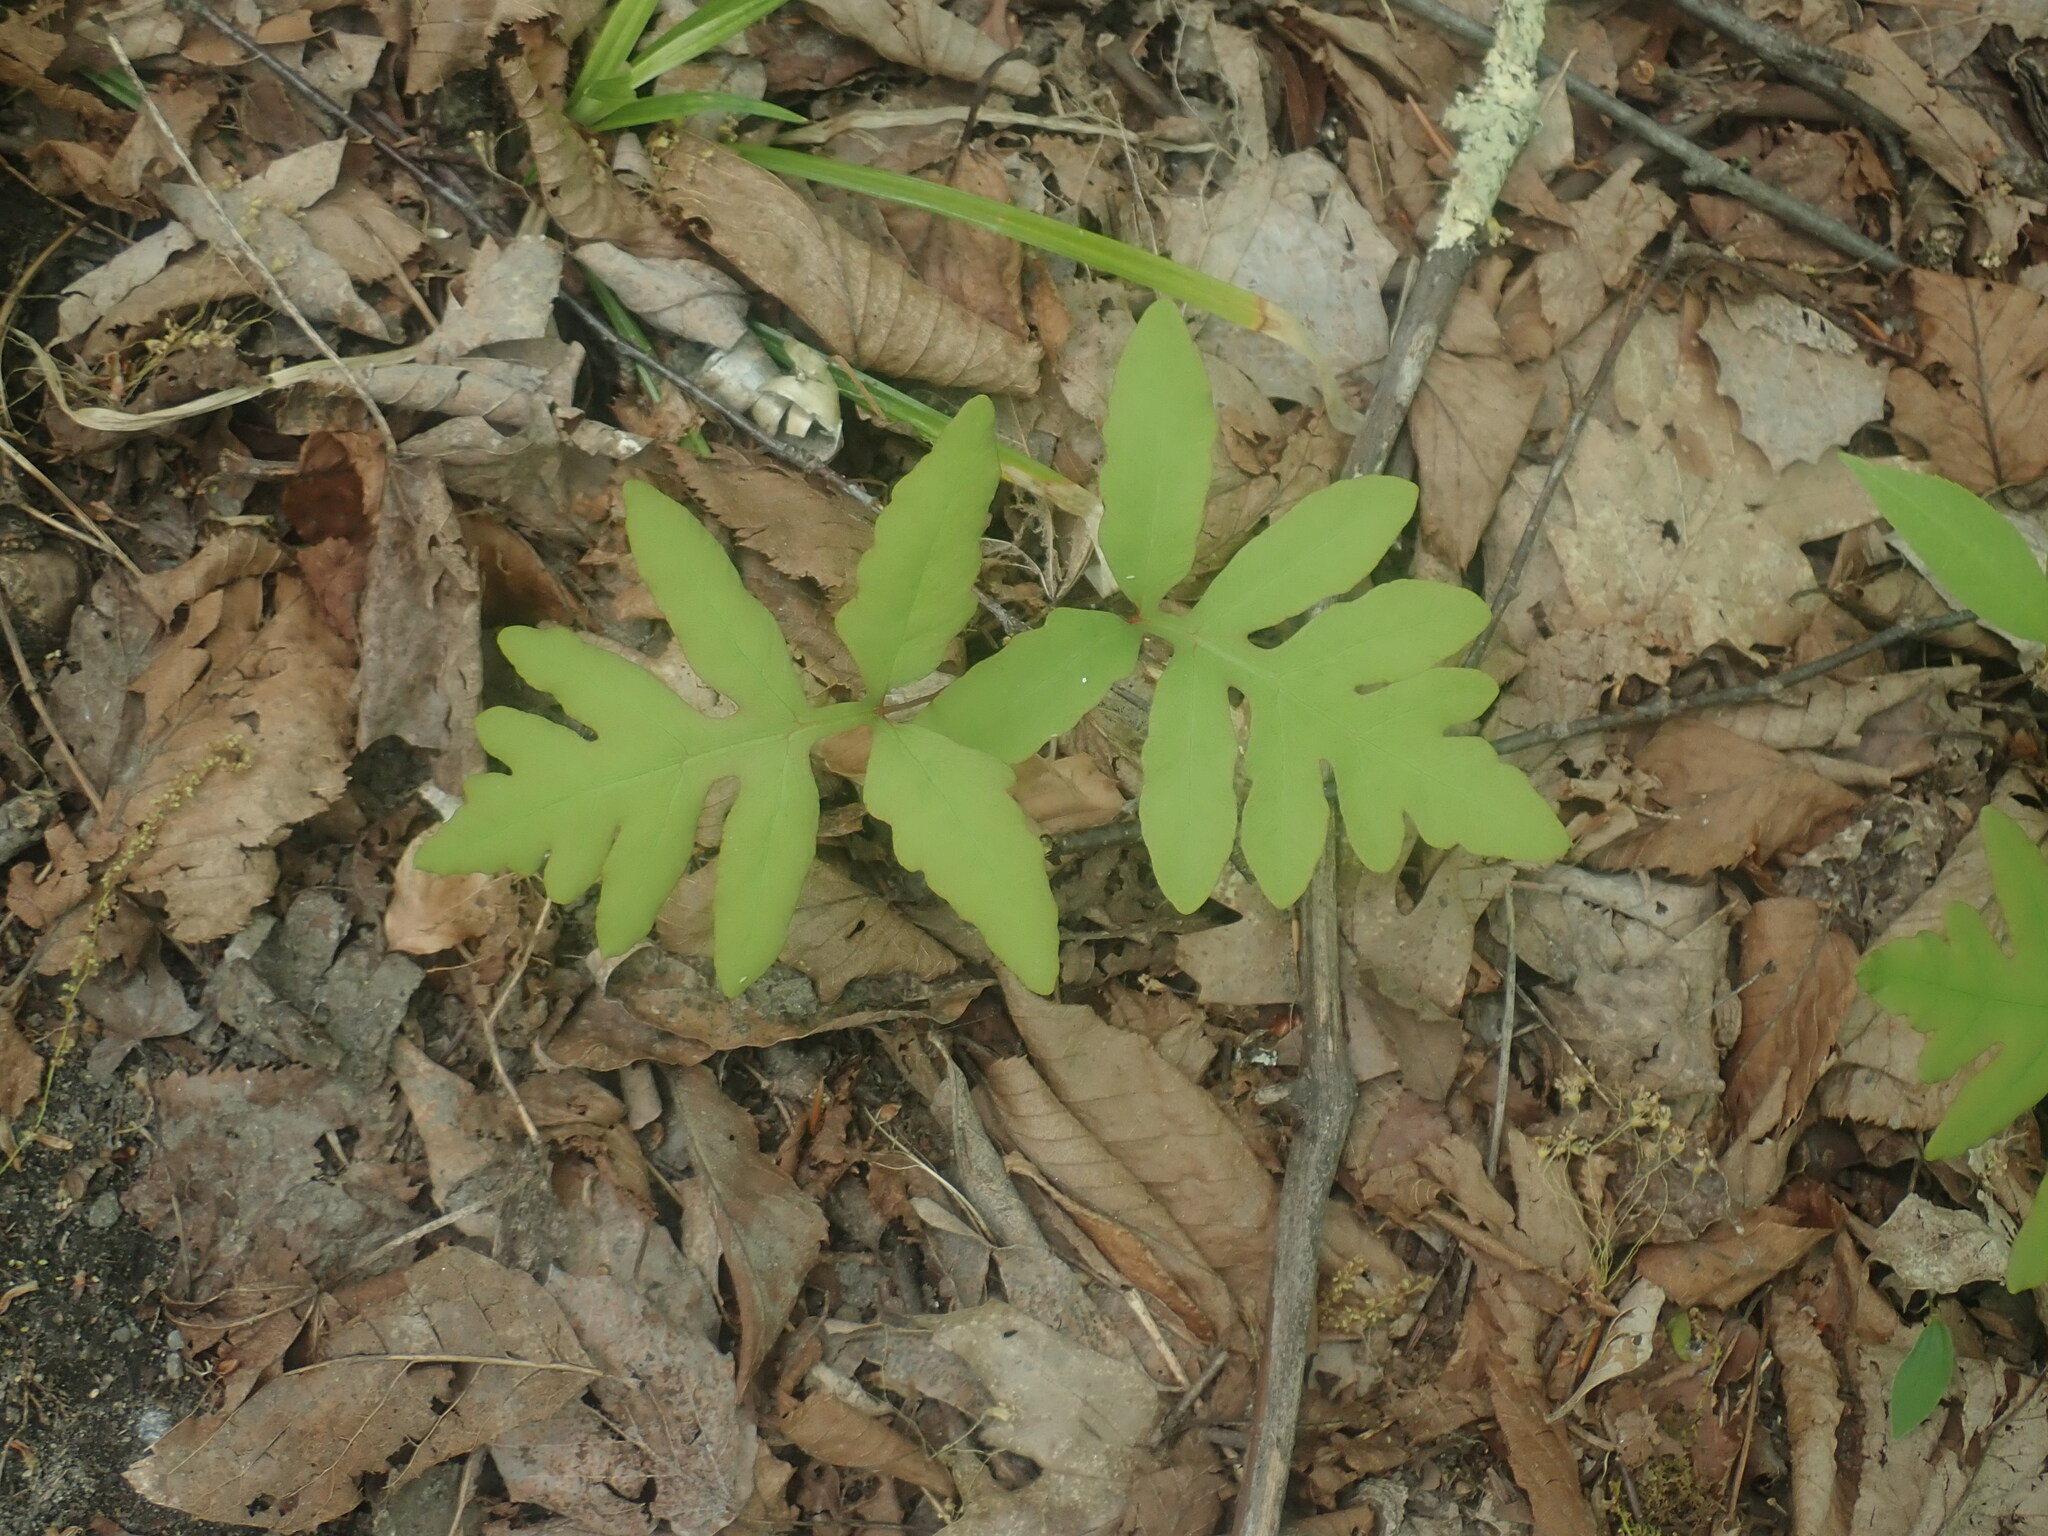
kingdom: Plantae
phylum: Tracheophyta
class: Polypodiopsida
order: Polypodiales
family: Onocleaceae
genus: Onoclea
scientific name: Onoclea sensibilis
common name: Sensitive fern
